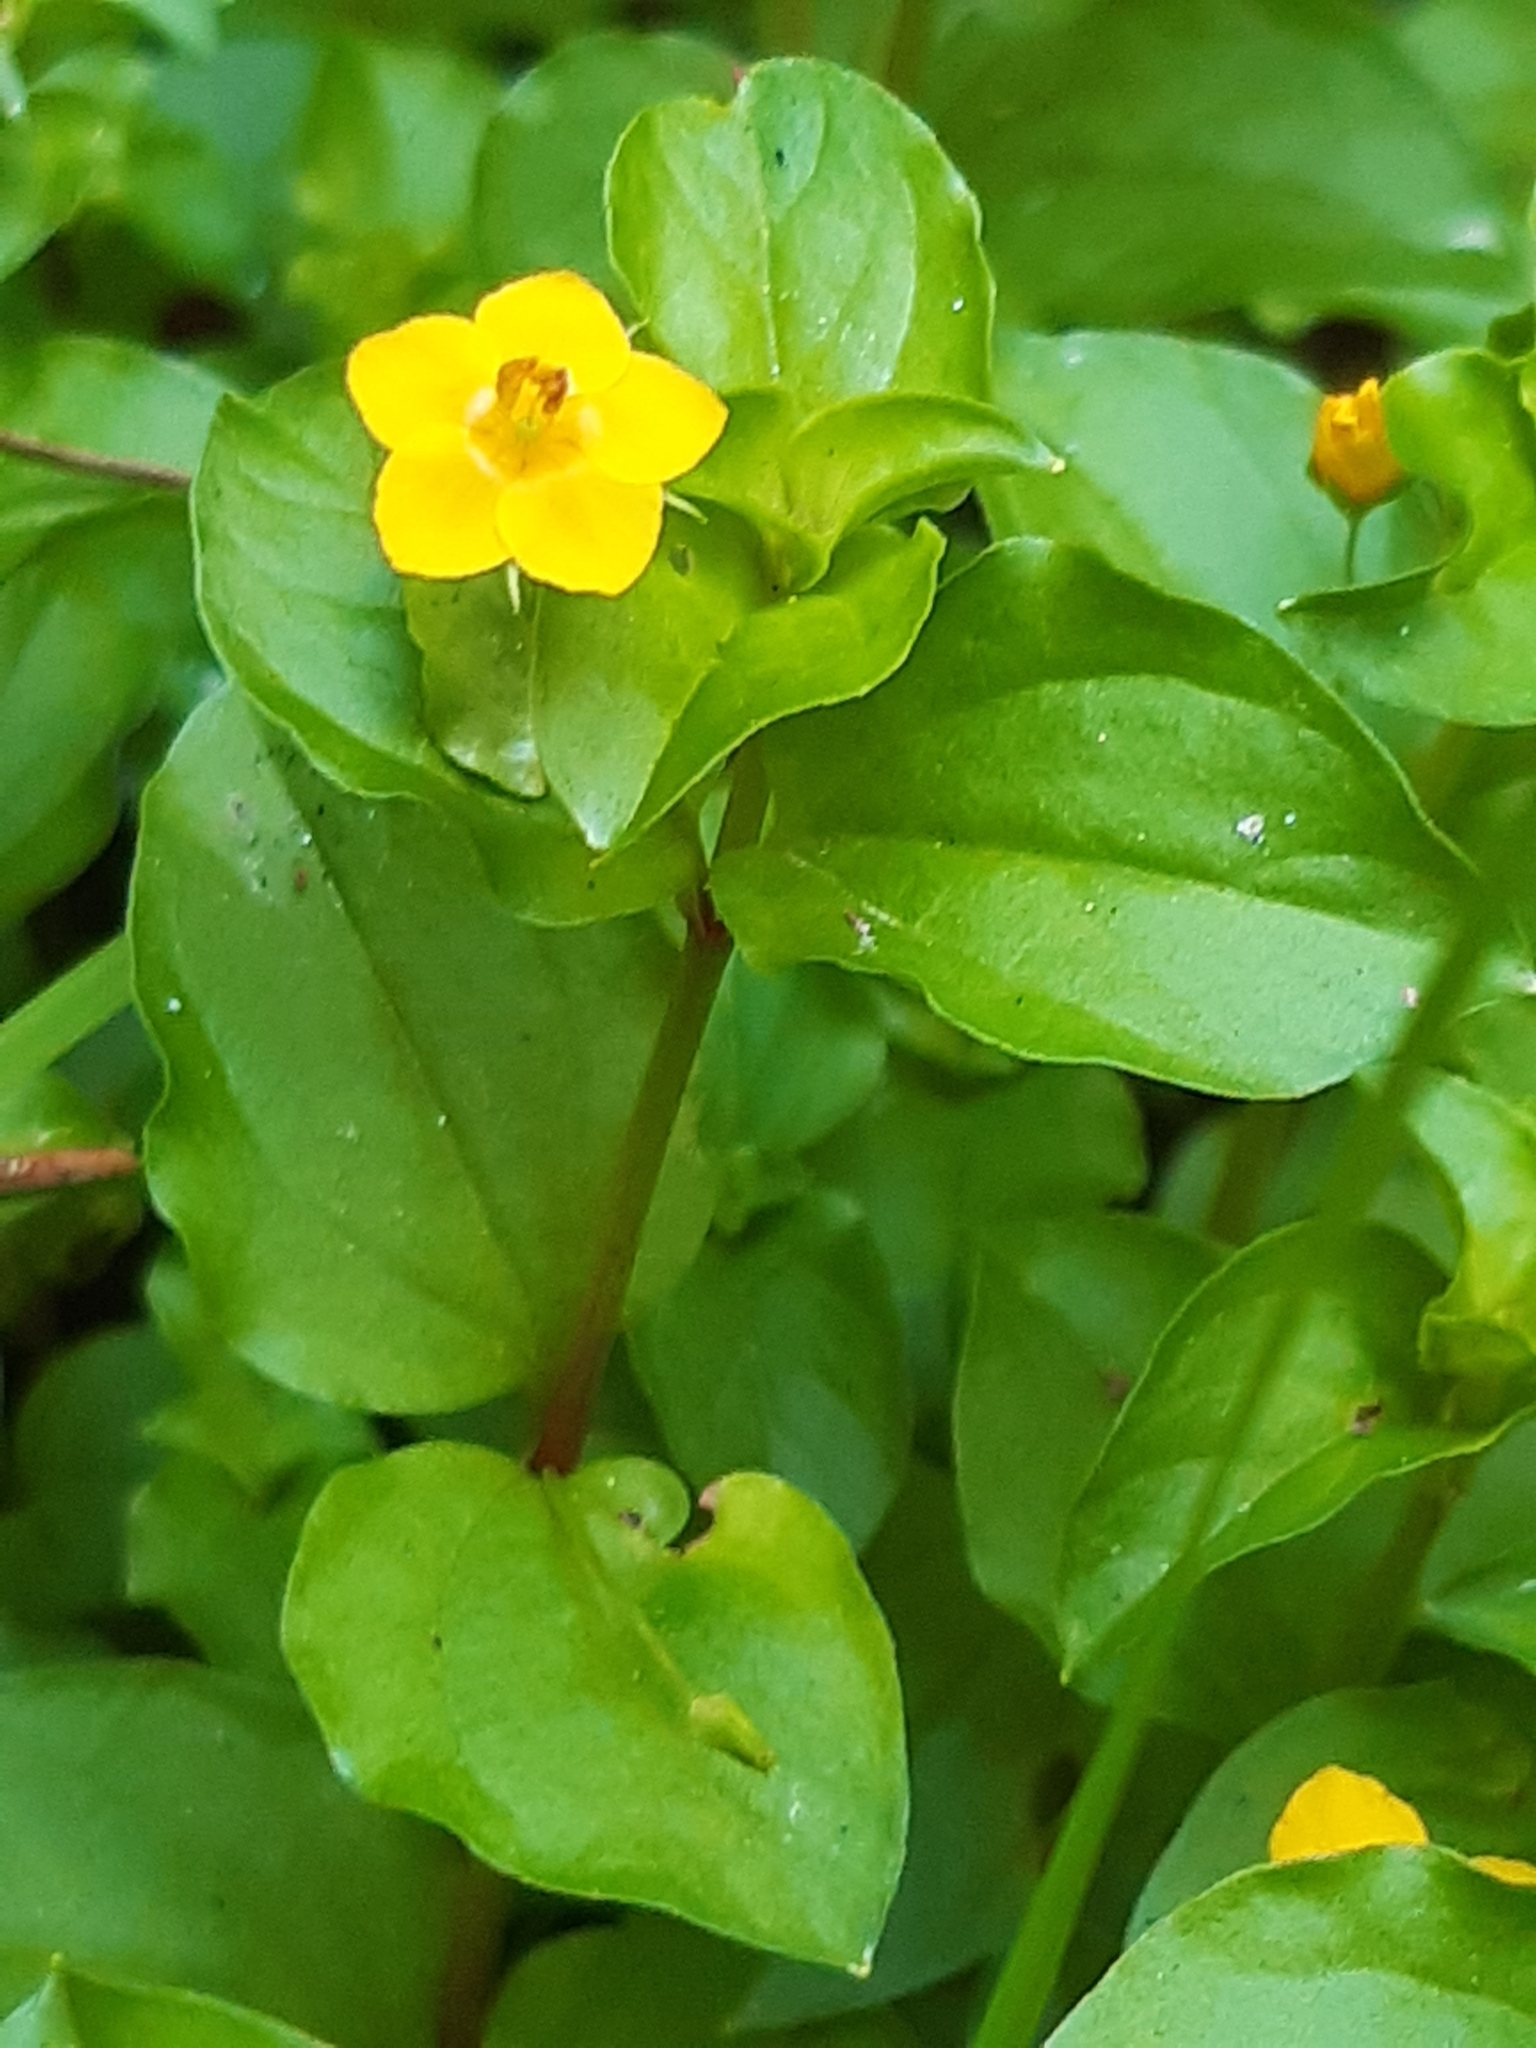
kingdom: Plantae
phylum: Tracheophyta
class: Magnoliopsida
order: Ericales
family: Primulaceae
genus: Lysimachia
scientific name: Lysimachia nemorum
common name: Yellow pimpernel
